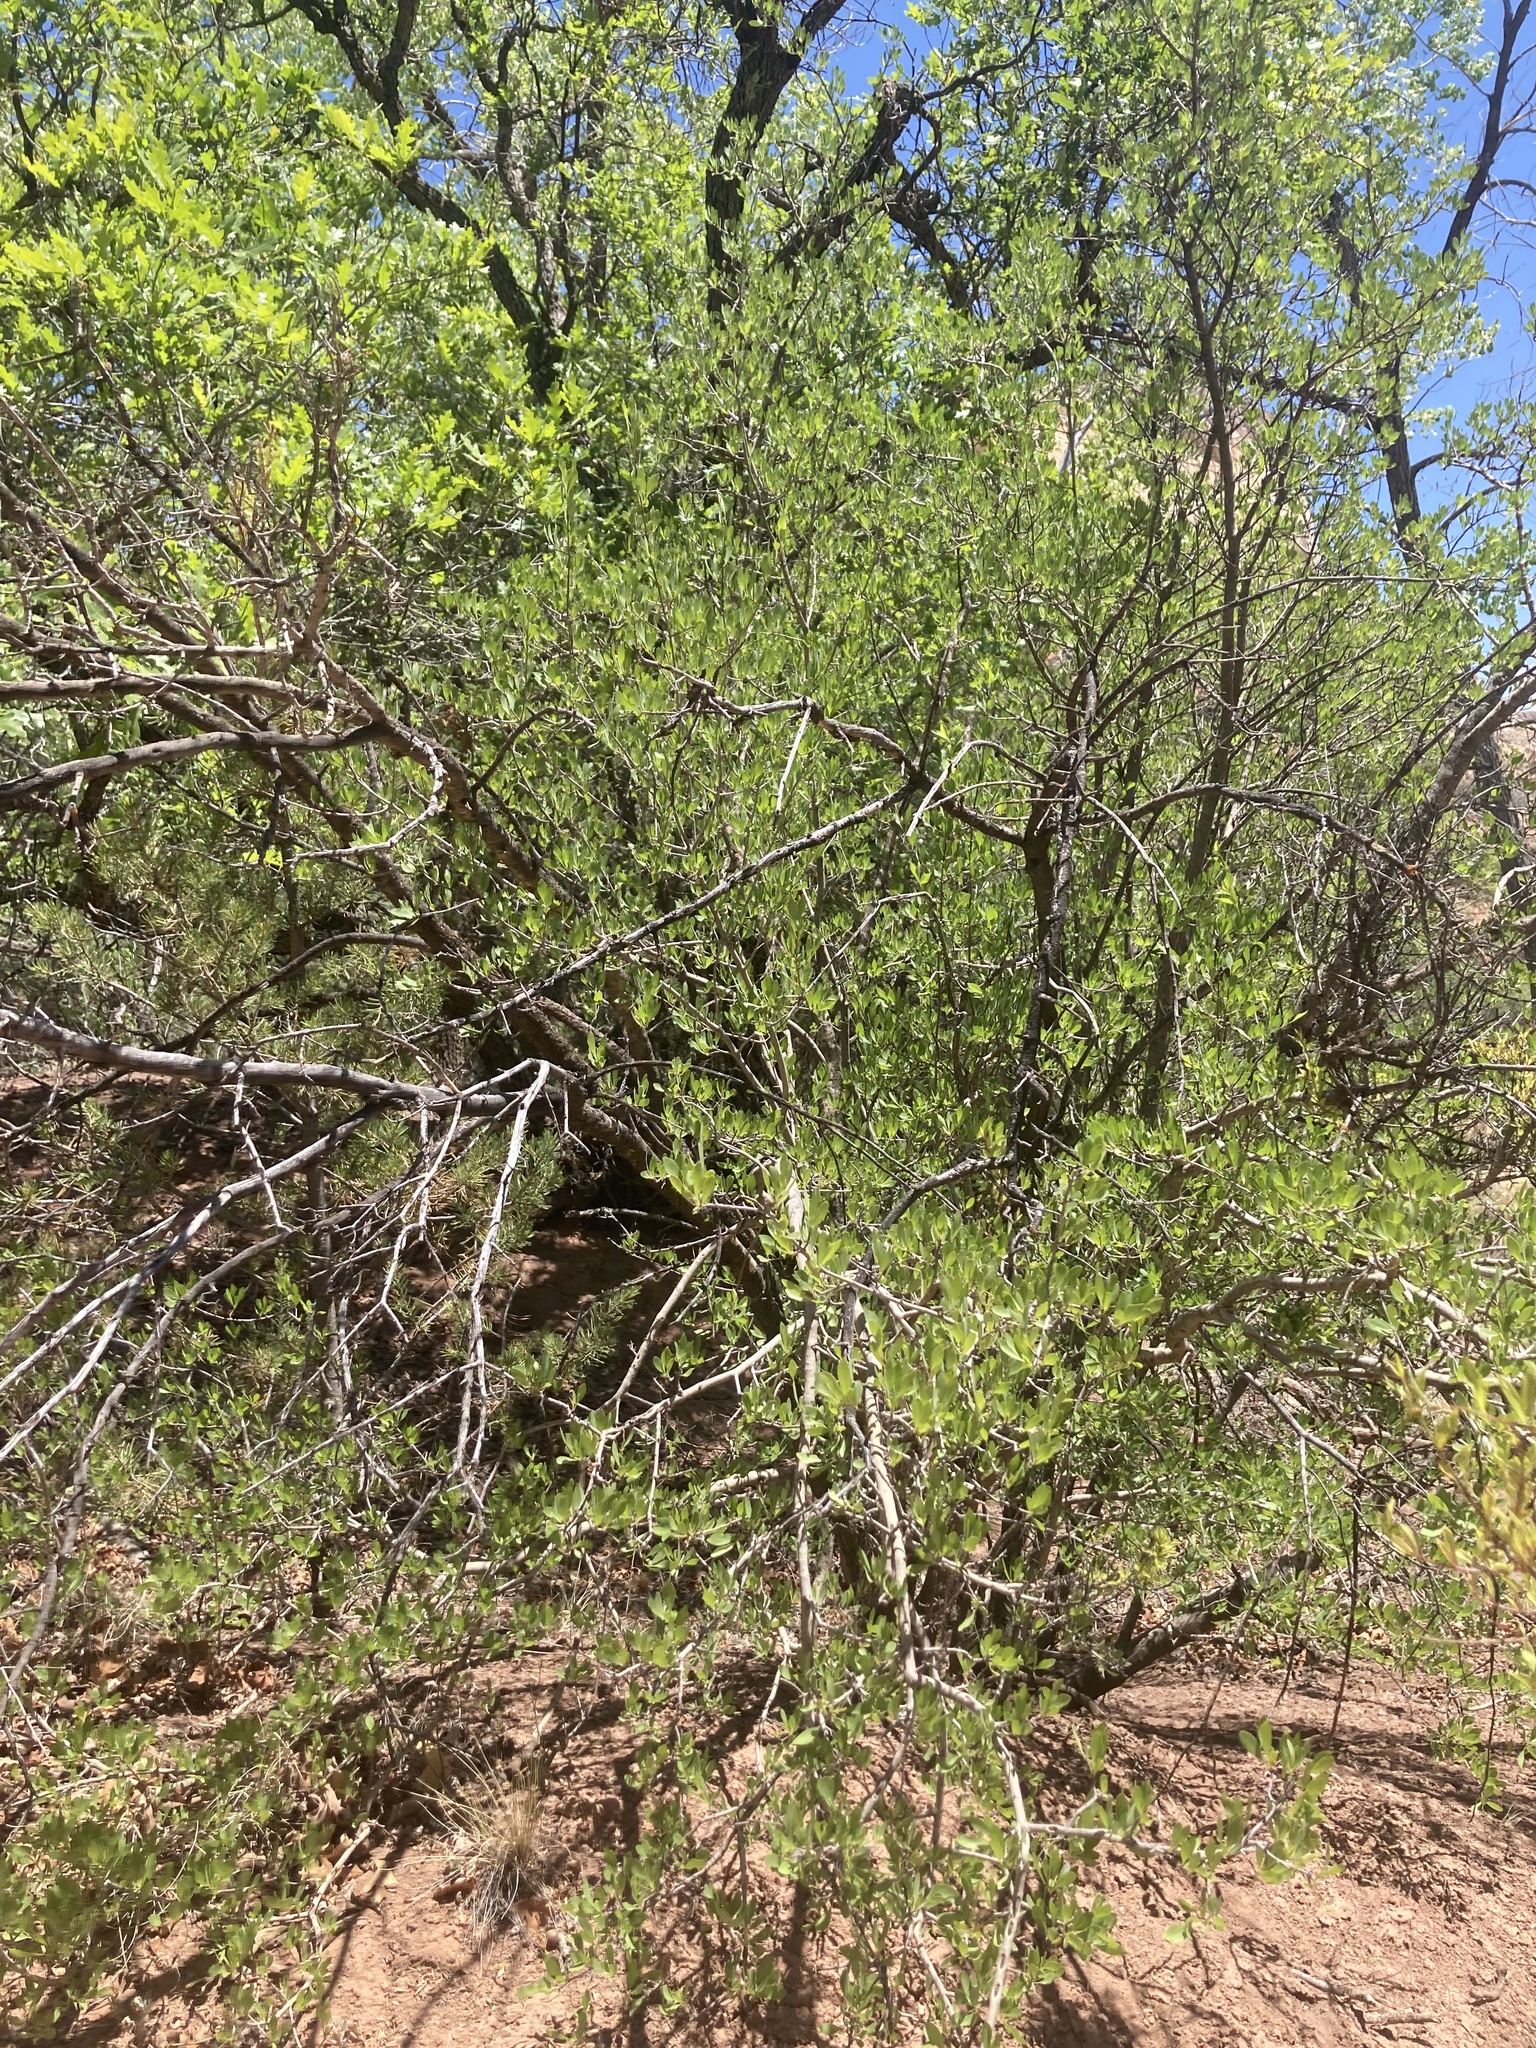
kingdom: Plantae
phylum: Tracheophyta
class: Magnoliopsida
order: Lamiales
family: Oleaceae
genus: Forestiera
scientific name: Forestiera pubescens
